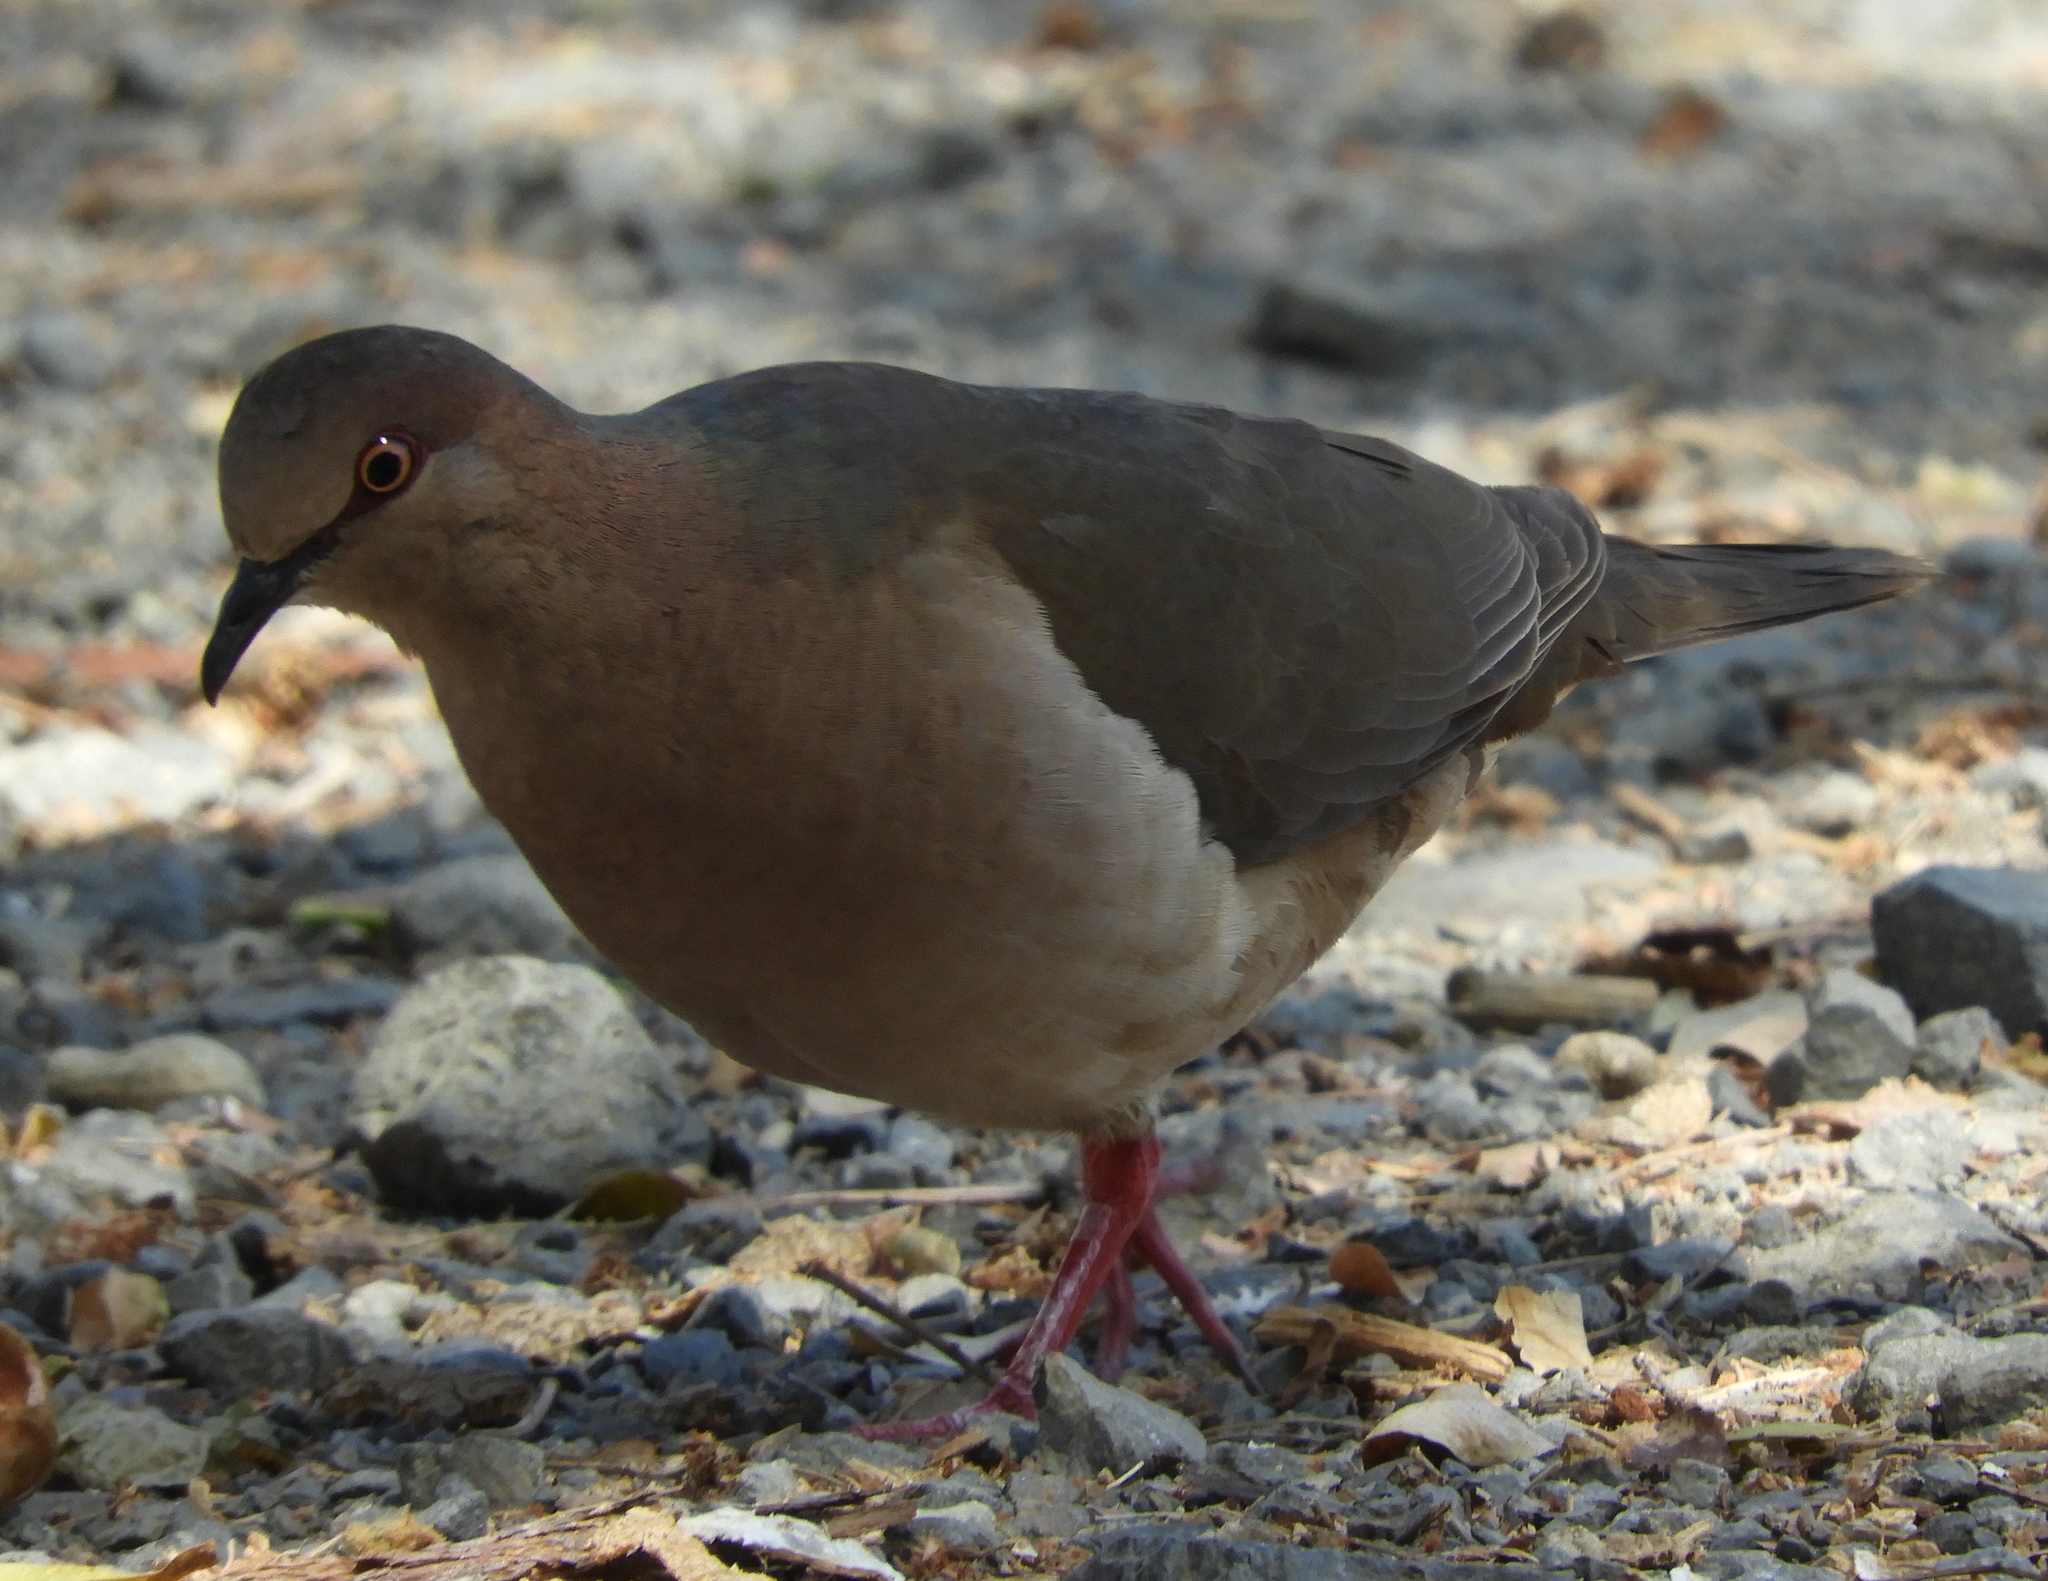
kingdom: Animalia
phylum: Chordata
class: Aves
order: Columbiformes
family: Columbidae
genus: Leptotila
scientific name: Leptotila verreauxi
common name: White-tipped dove
